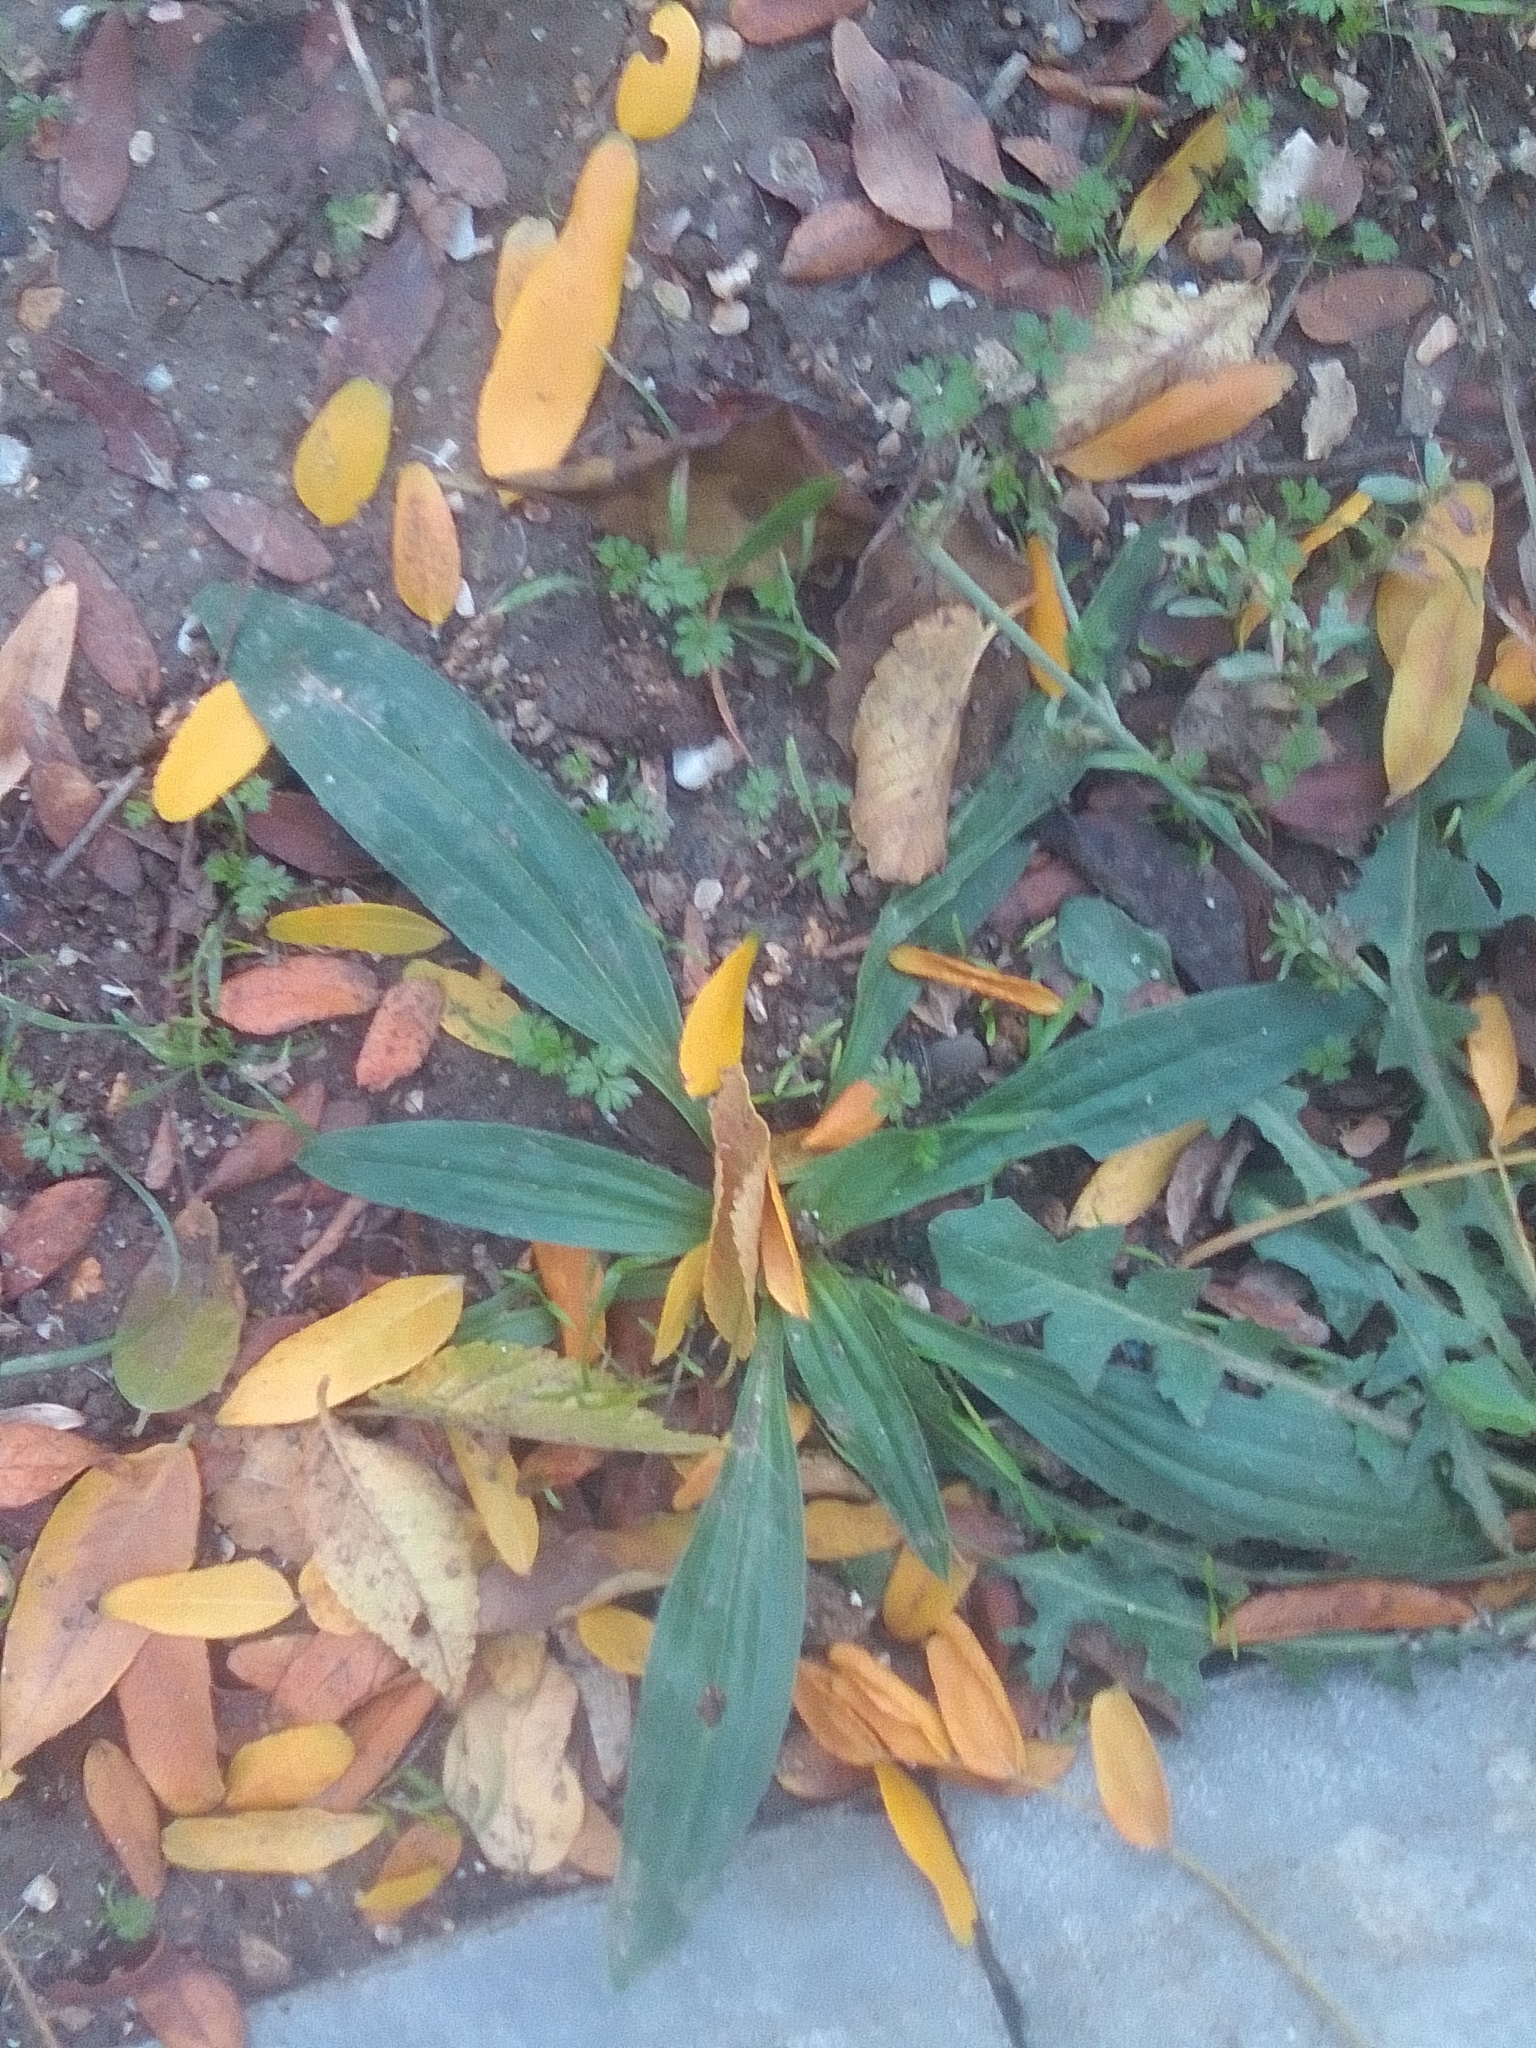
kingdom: Plantae
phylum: Tracheophyta
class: Magnoliopsida
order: Lamiales
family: Plantaginaceae
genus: Plantago
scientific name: Plantago lanceolata
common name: Ribwort plantain
